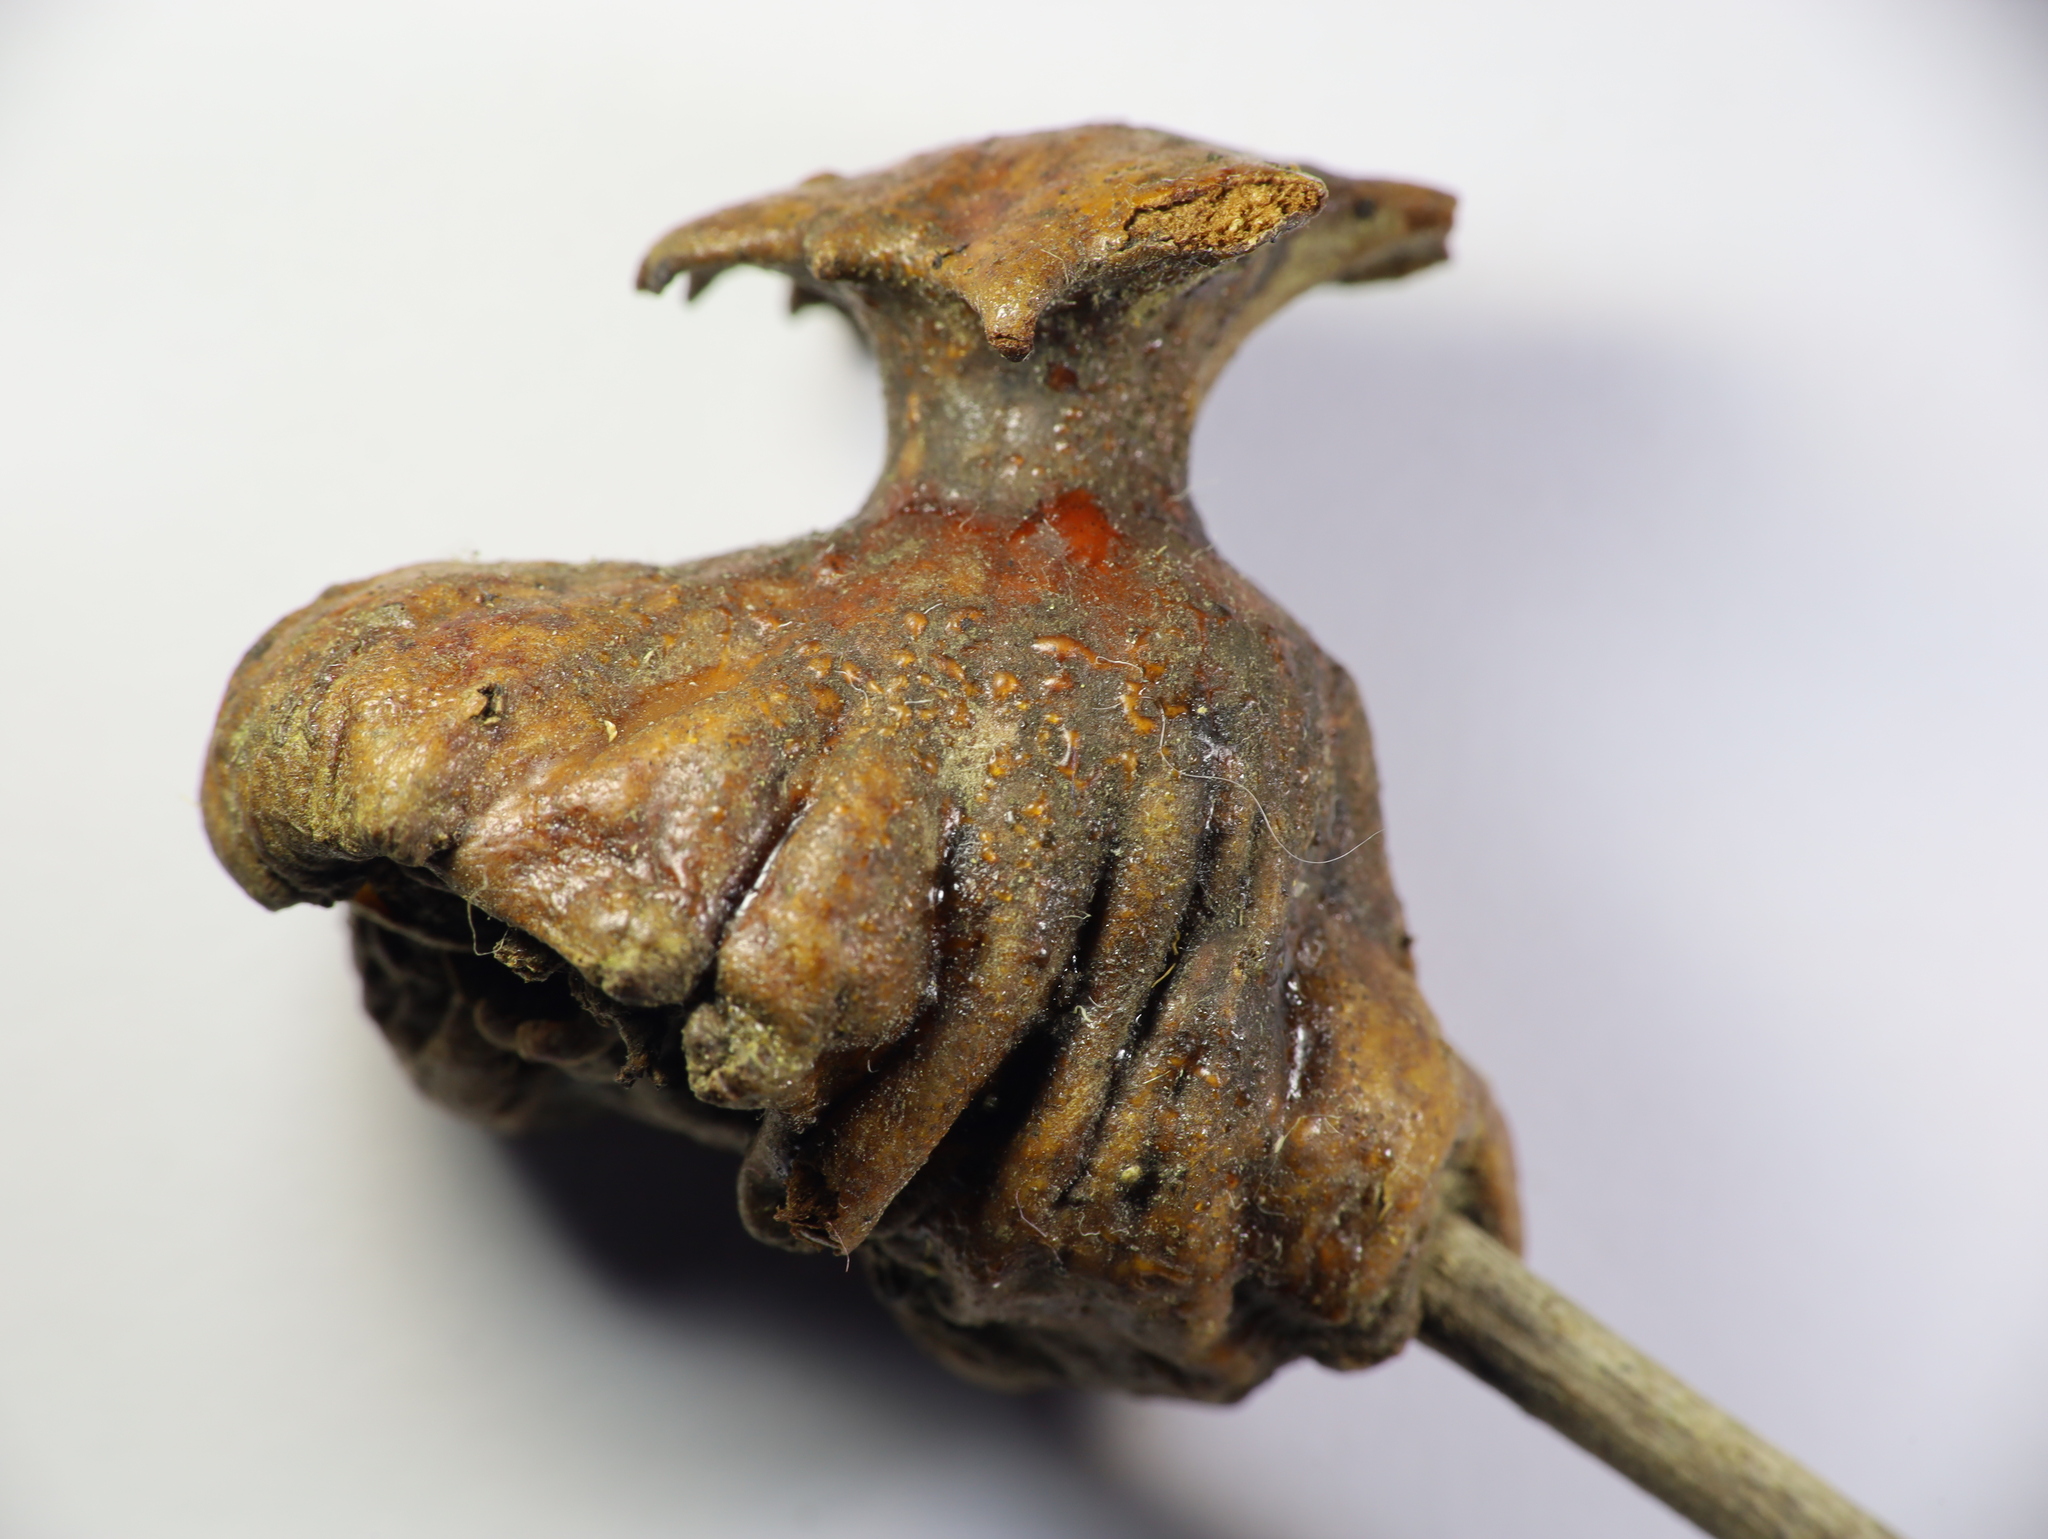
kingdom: Animalia
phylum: Arthropoda
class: Insecta
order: Hymenoptera
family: Cynipidae
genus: Andricus
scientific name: Andricus dentimitratus
